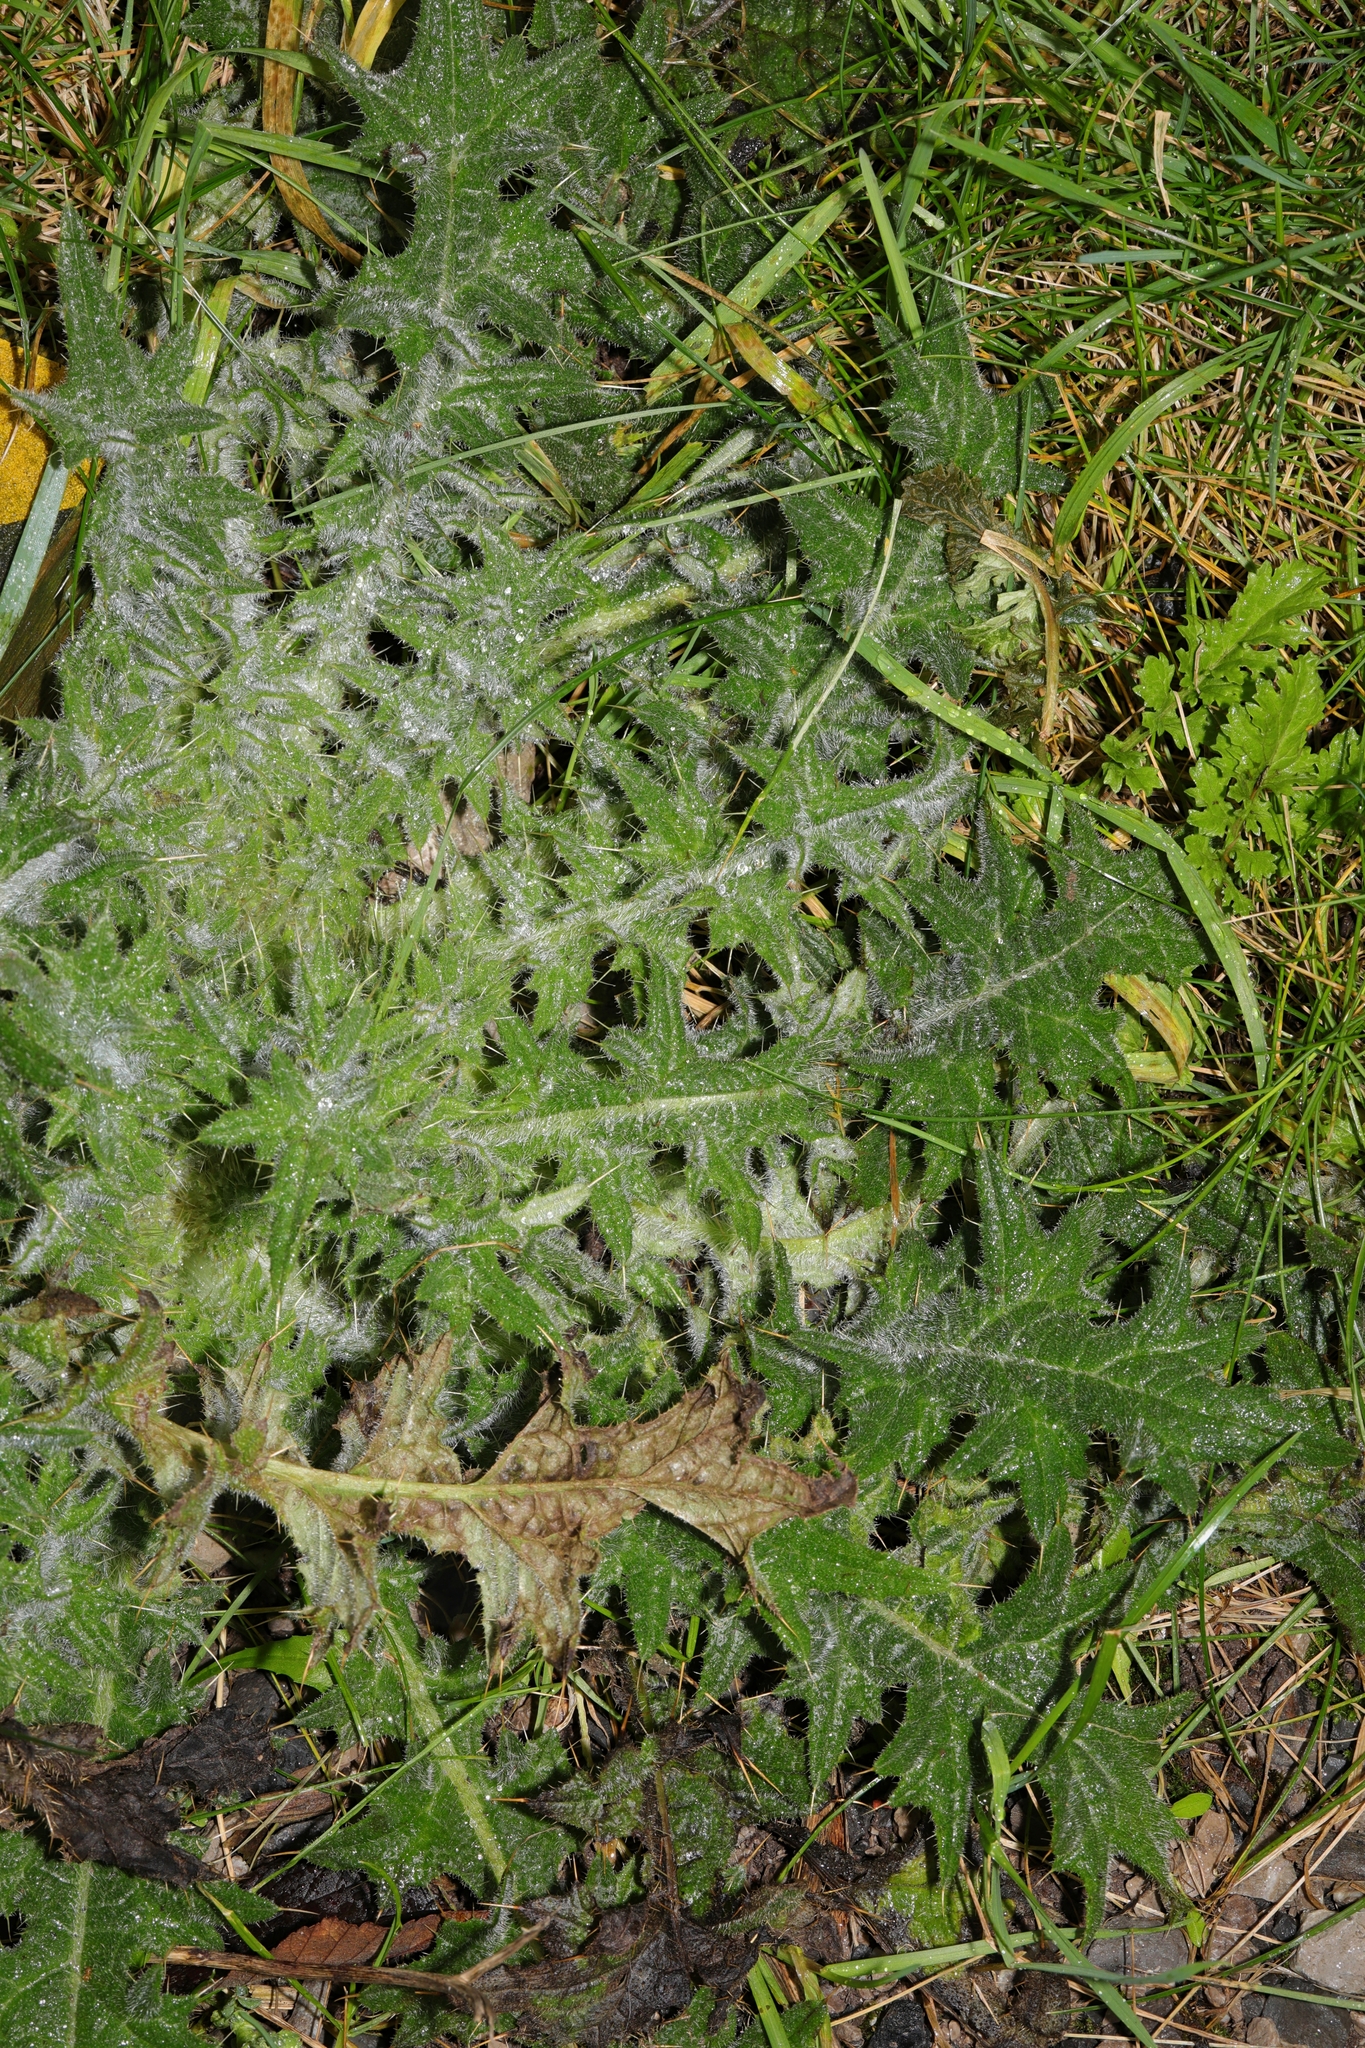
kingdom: Plantae
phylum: Tracheophyta
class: Magnoliopsida
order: Asterales
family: Asteraceae
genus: Cirsium
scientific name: Cirsium vulgare
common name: Bull thistle
